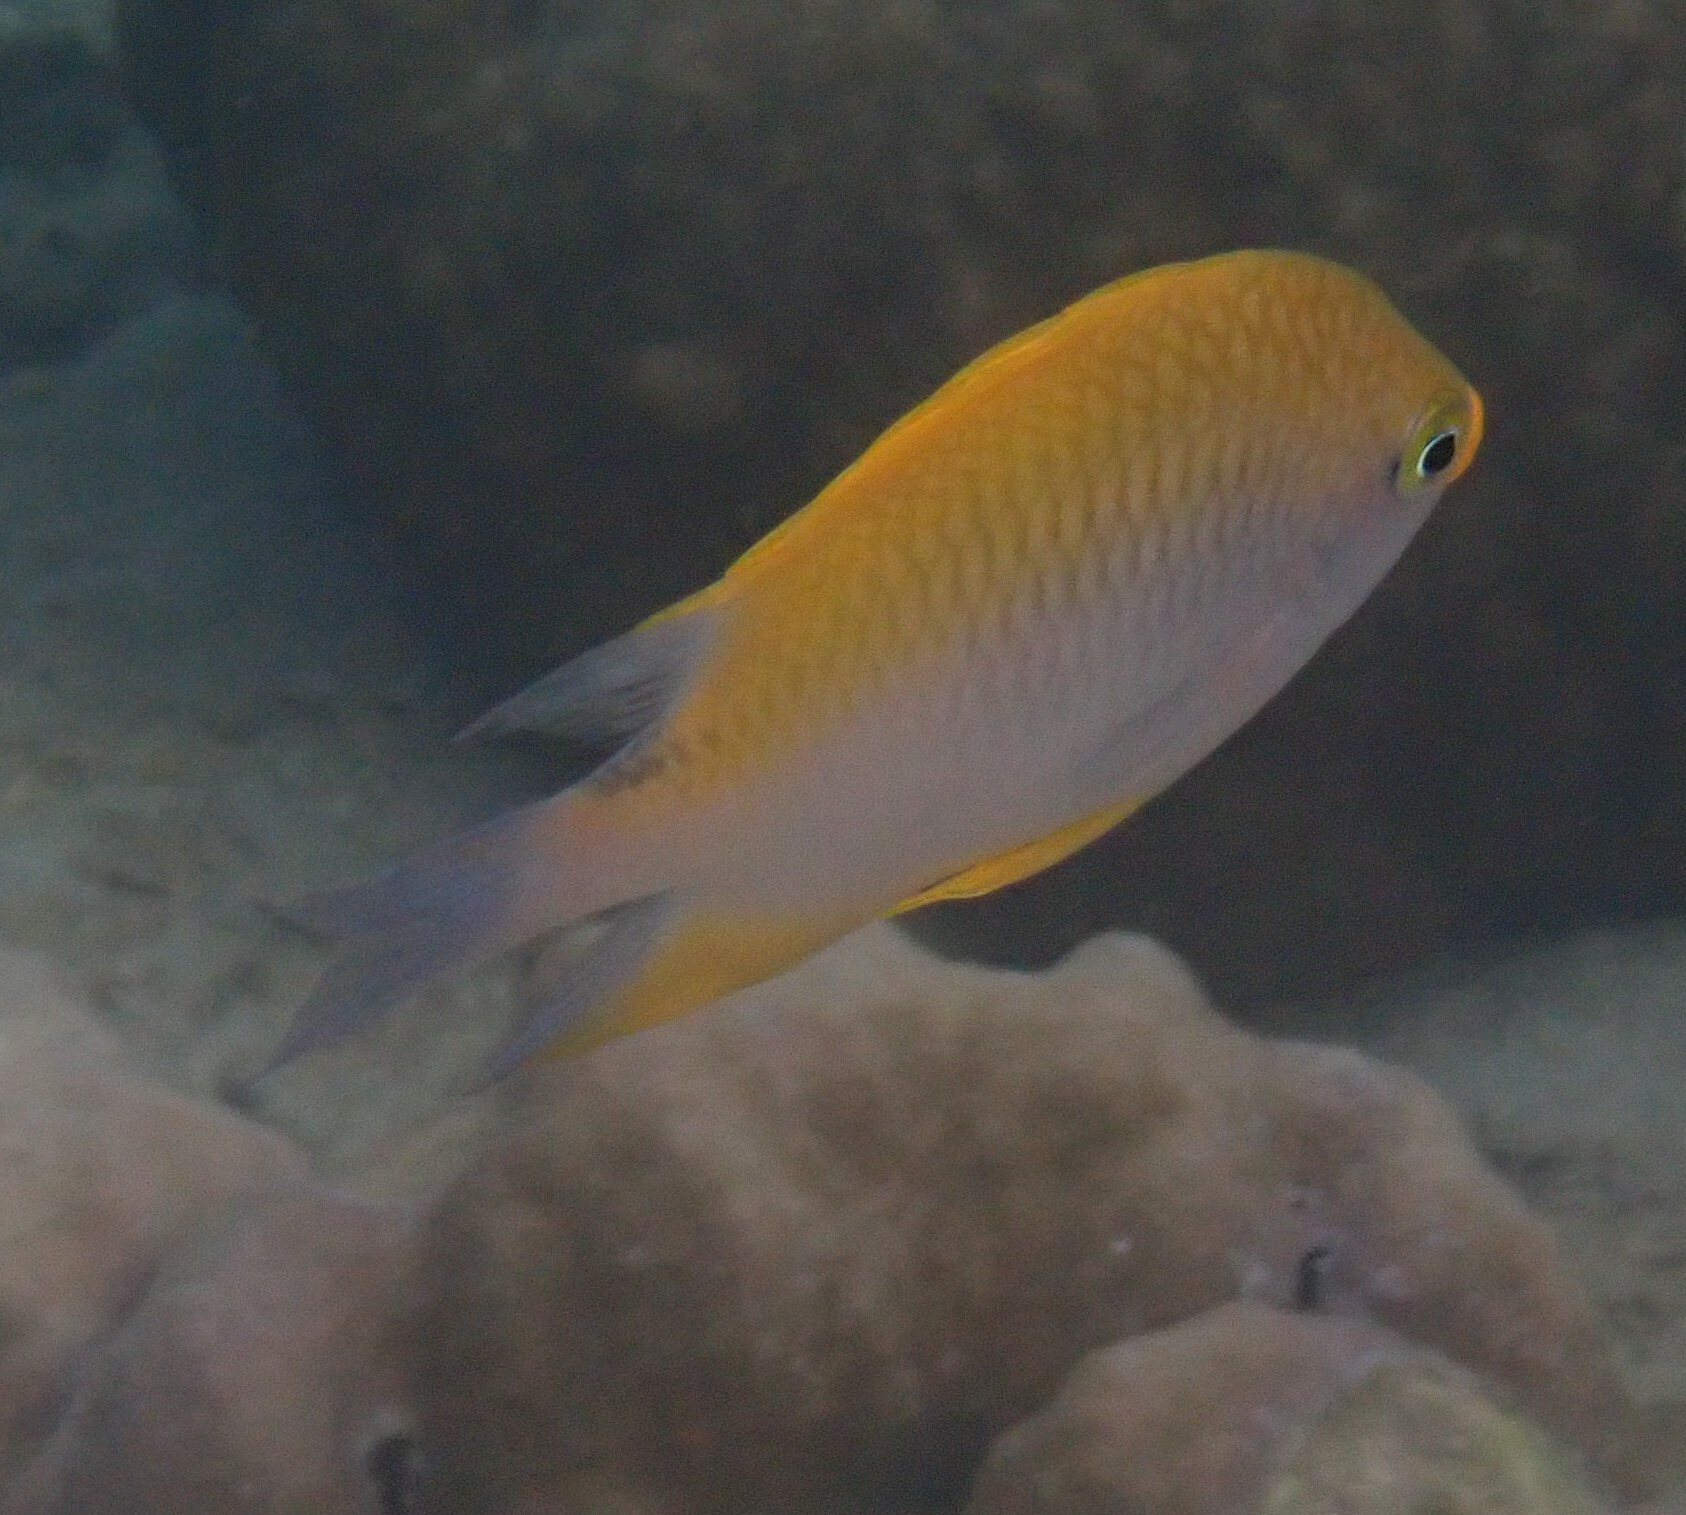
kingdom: Animalia
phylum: Chordata
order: Perciformes
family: Pomacentridae
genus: Amblyglyphidodon
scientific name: Amblyglyphidodon aureus
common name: Golden damsel
